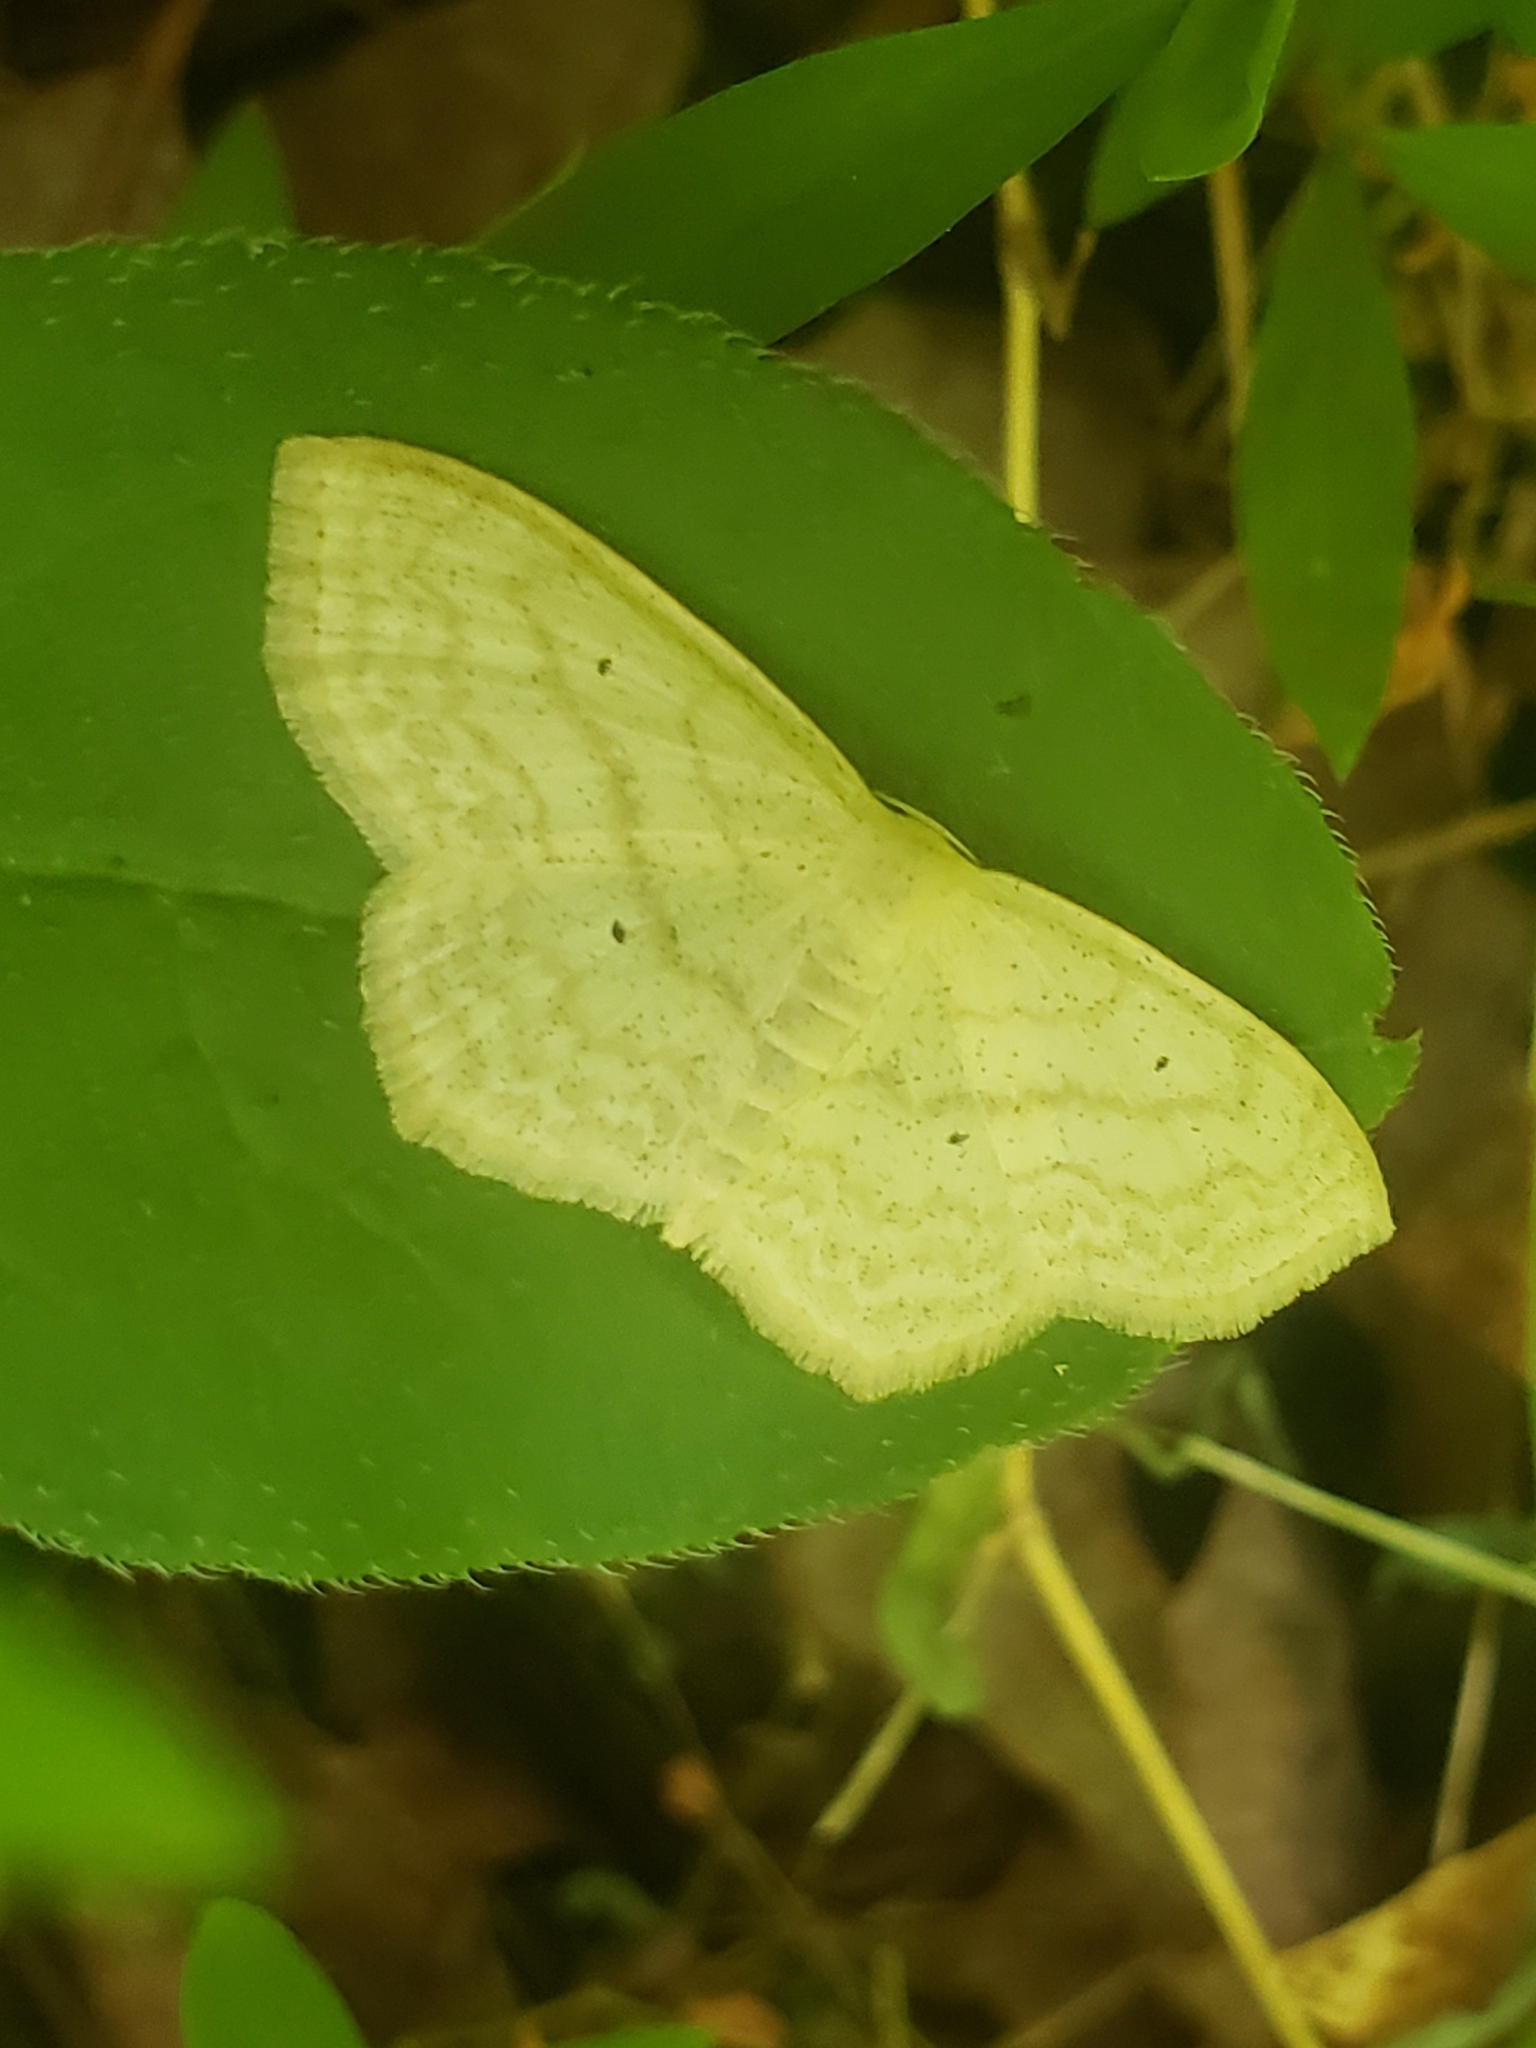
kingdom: Animalia
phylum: Arthropoda
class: Insecta
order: Lepidoptera
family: Geometridae
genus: Scopula
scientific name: Scopula limboundata
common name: Large lace border
